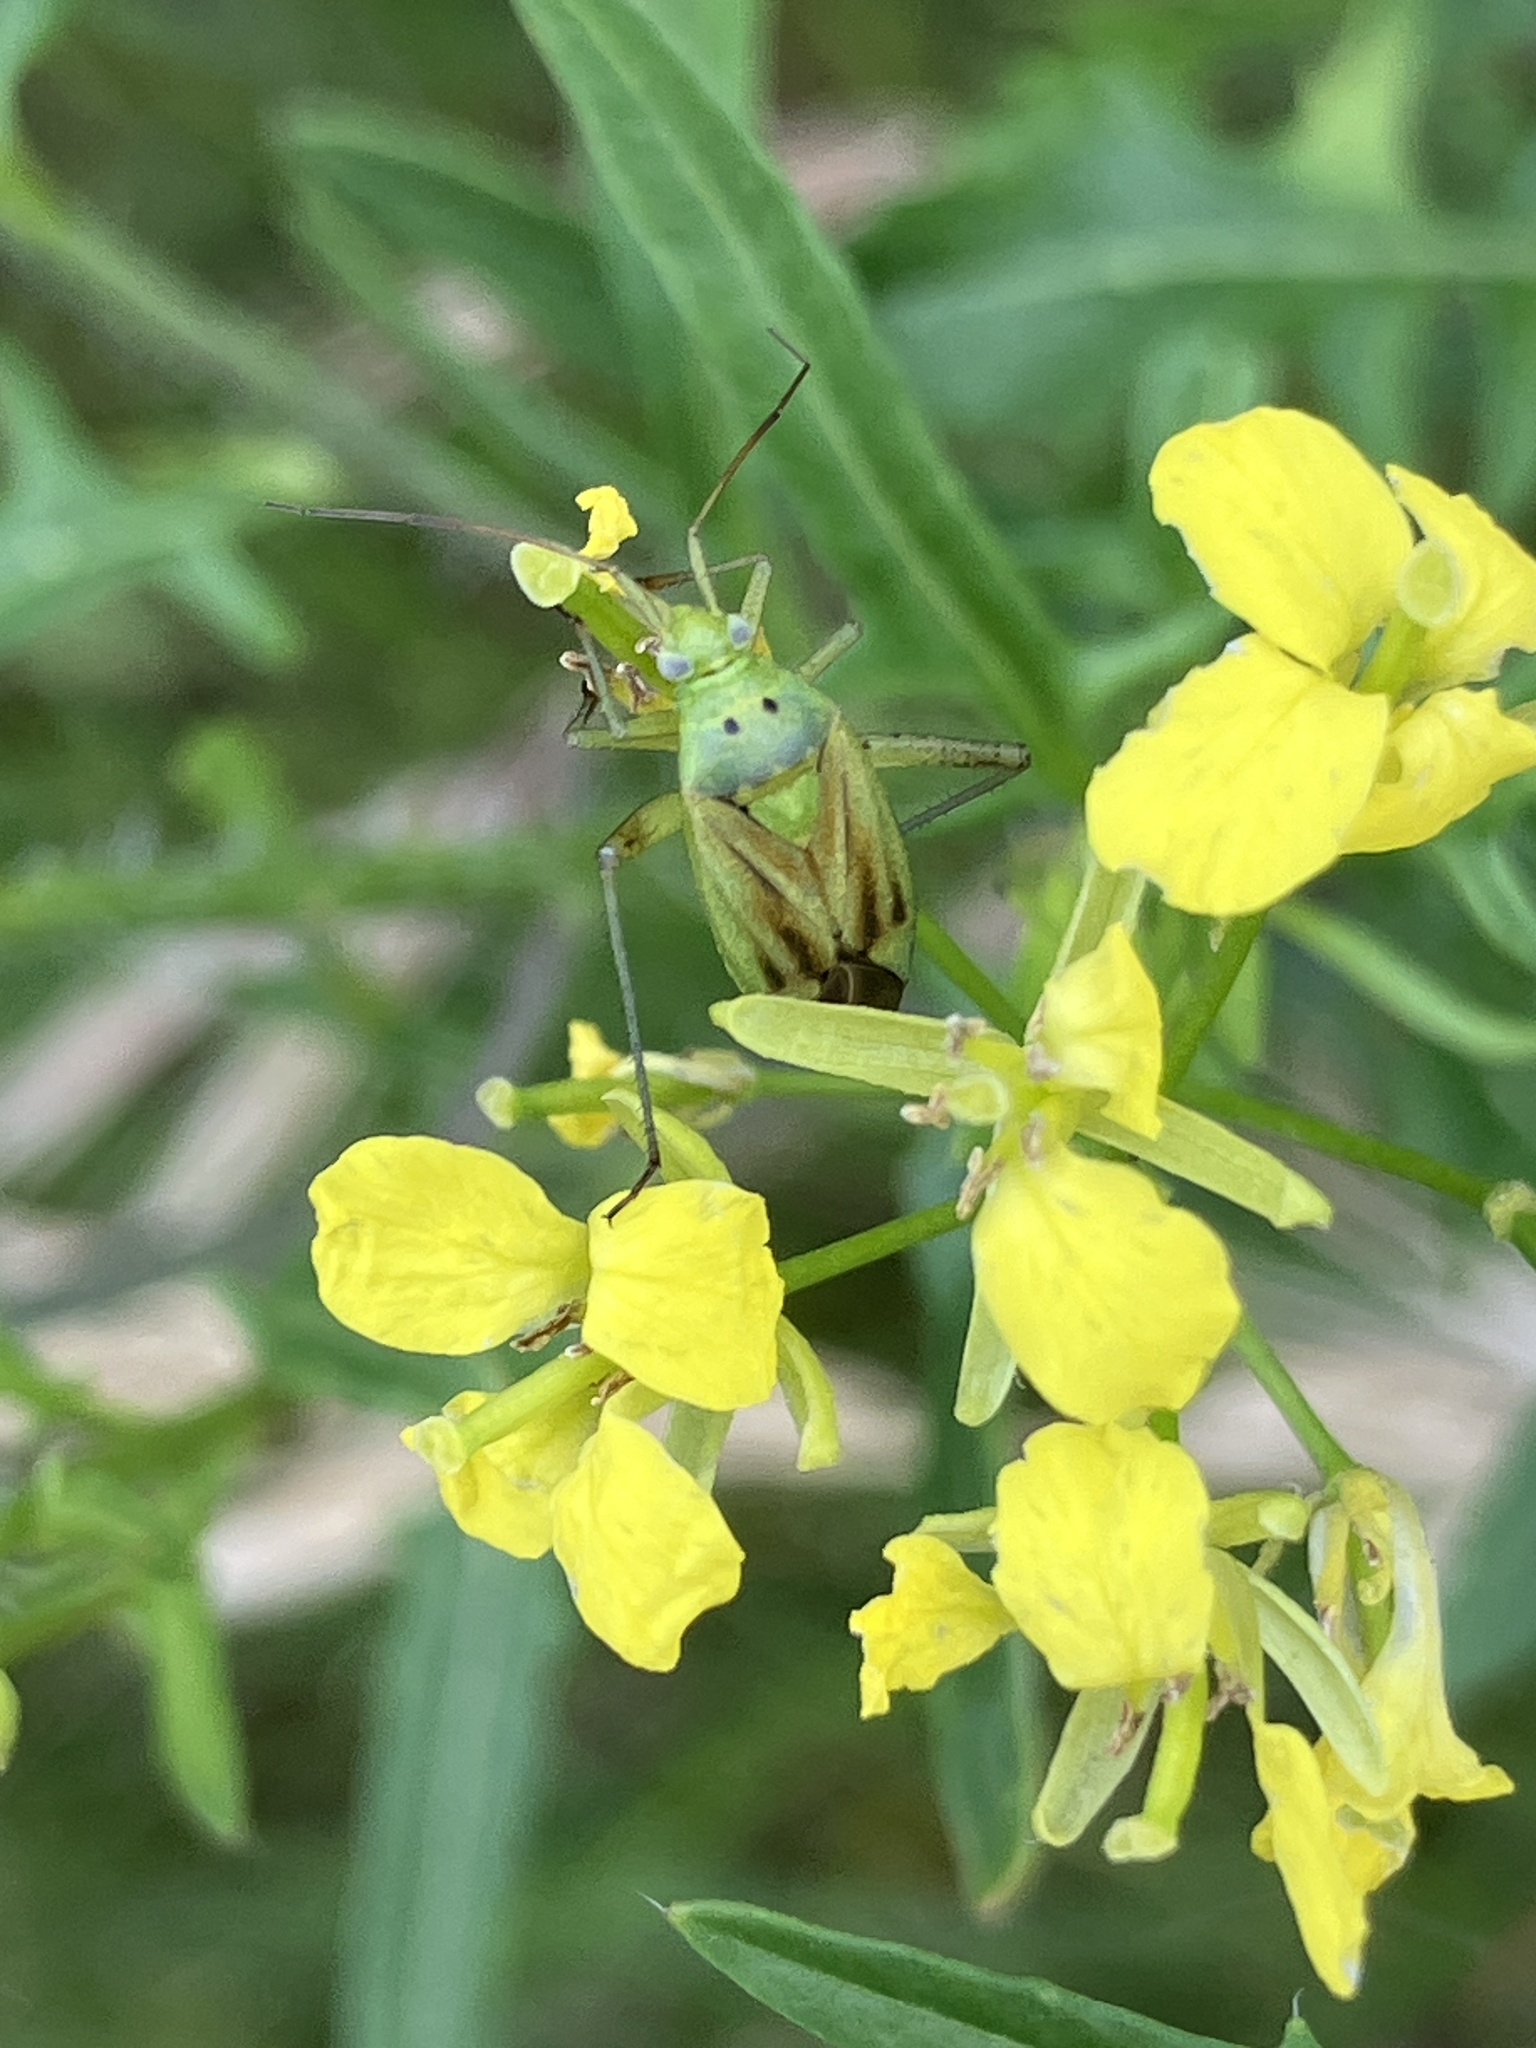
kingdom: Animalia
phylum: Arthropoda
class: Insecta
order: Hemiptera
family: Miridae
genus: Closterotomus
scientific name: Closterotomus norvegicus
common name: Plant bug
